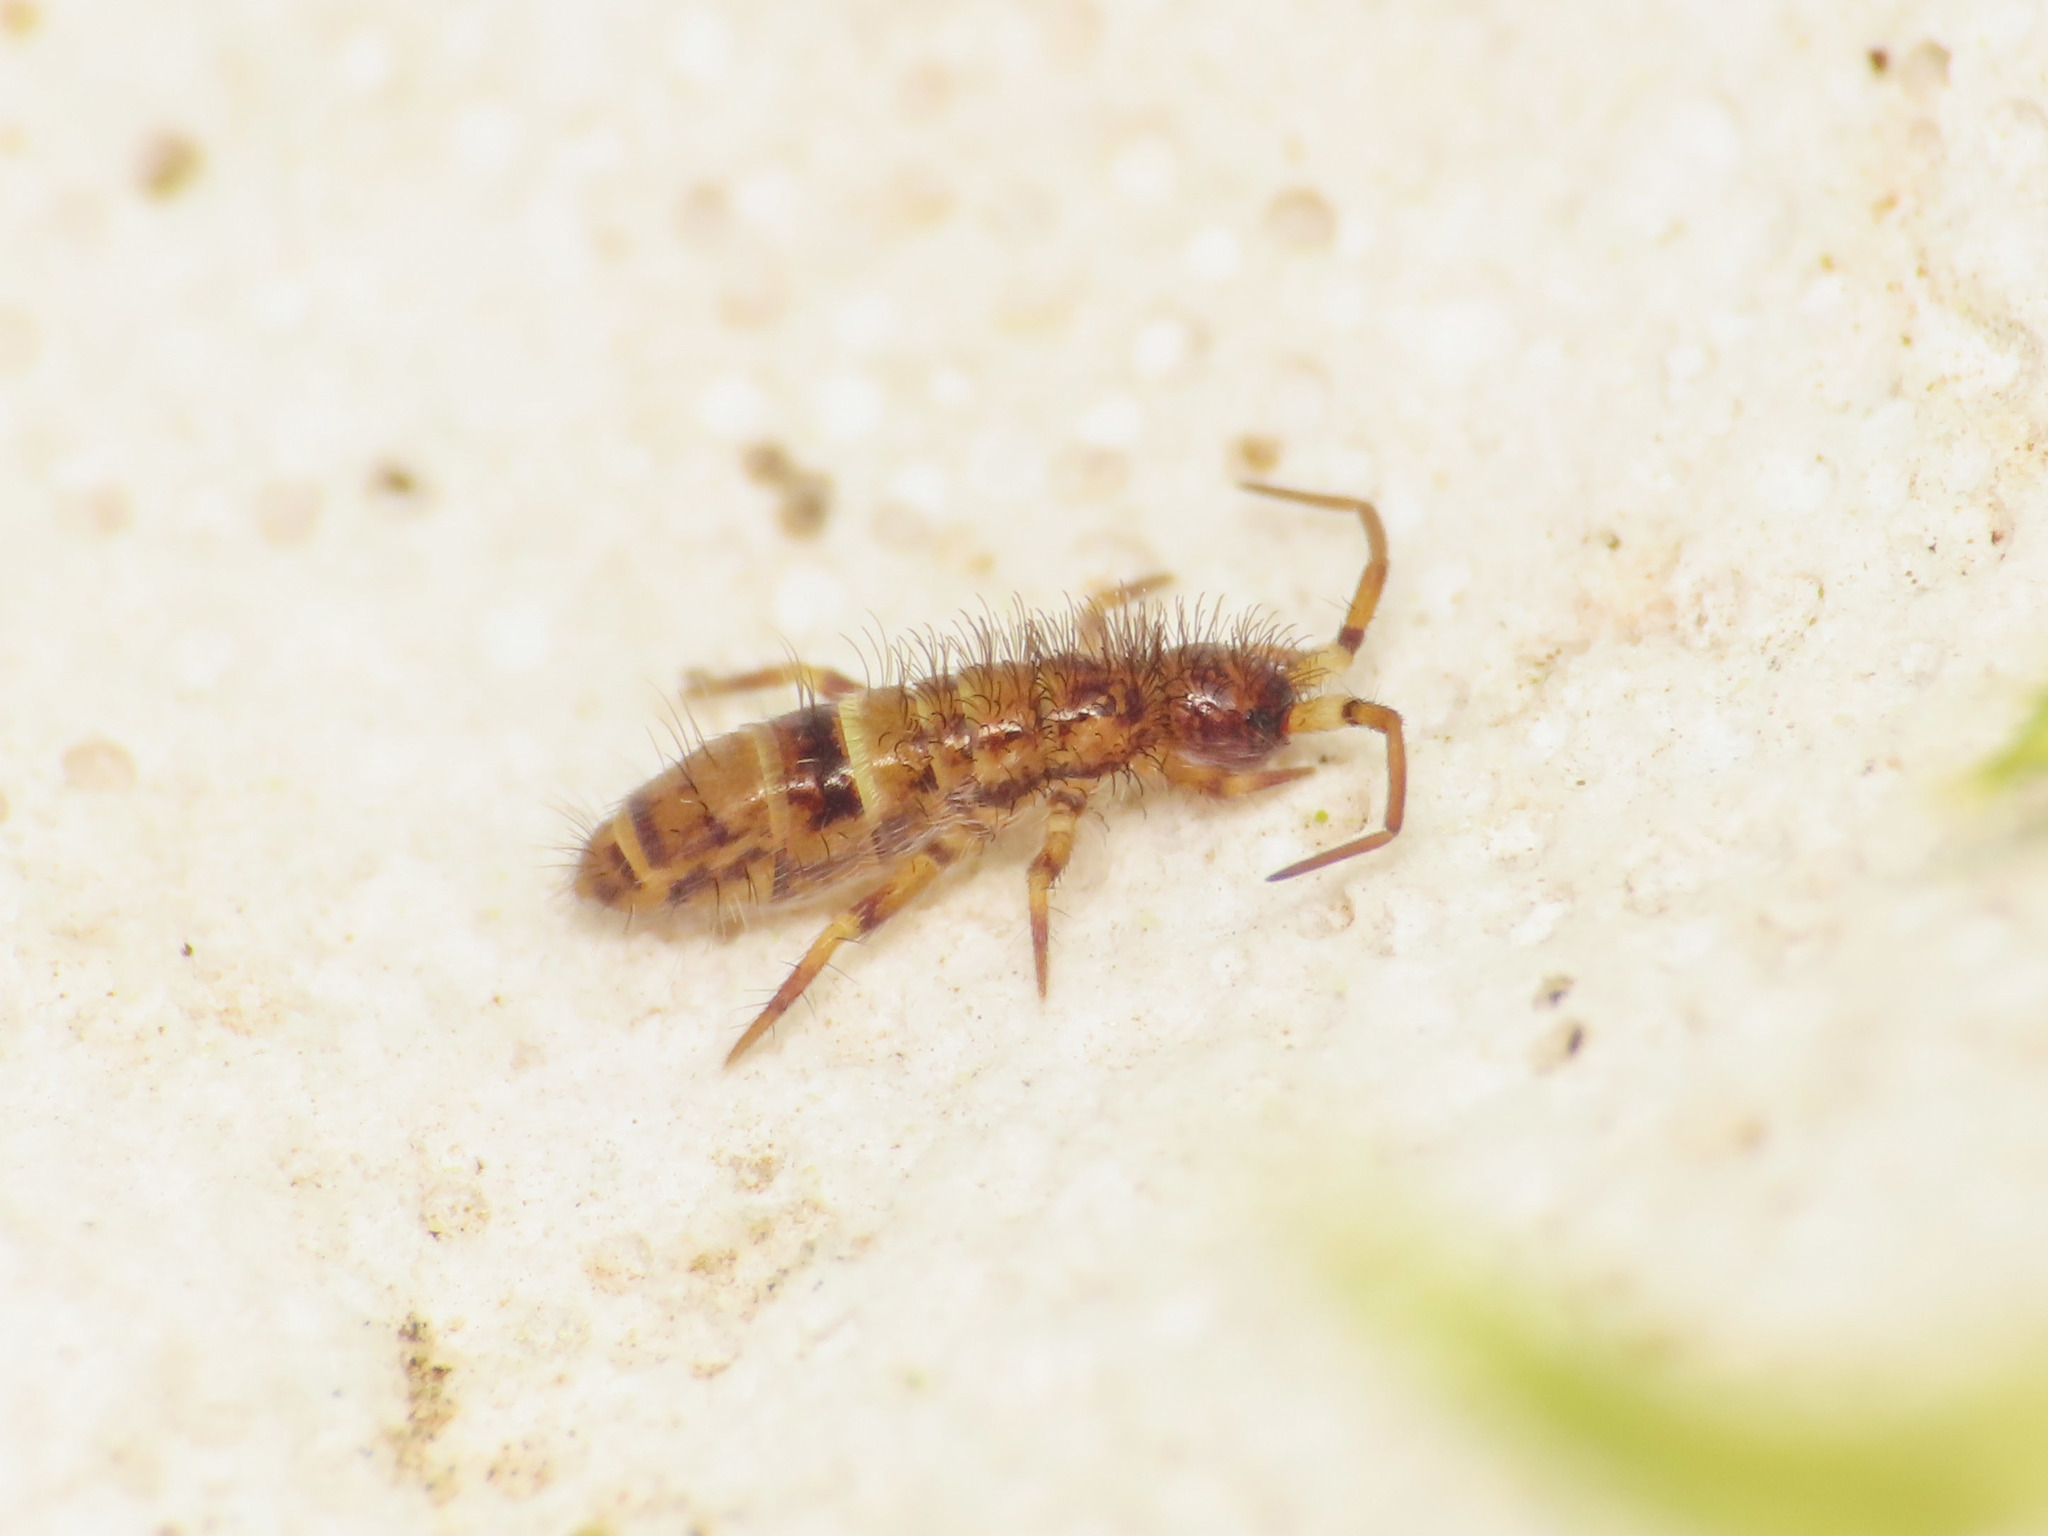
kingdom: Animalia
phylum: Arthropoda
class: Collembola
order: Entomobryomorpha
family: Orchesellidae
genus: Orchesella
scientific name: Orchesella cincta
